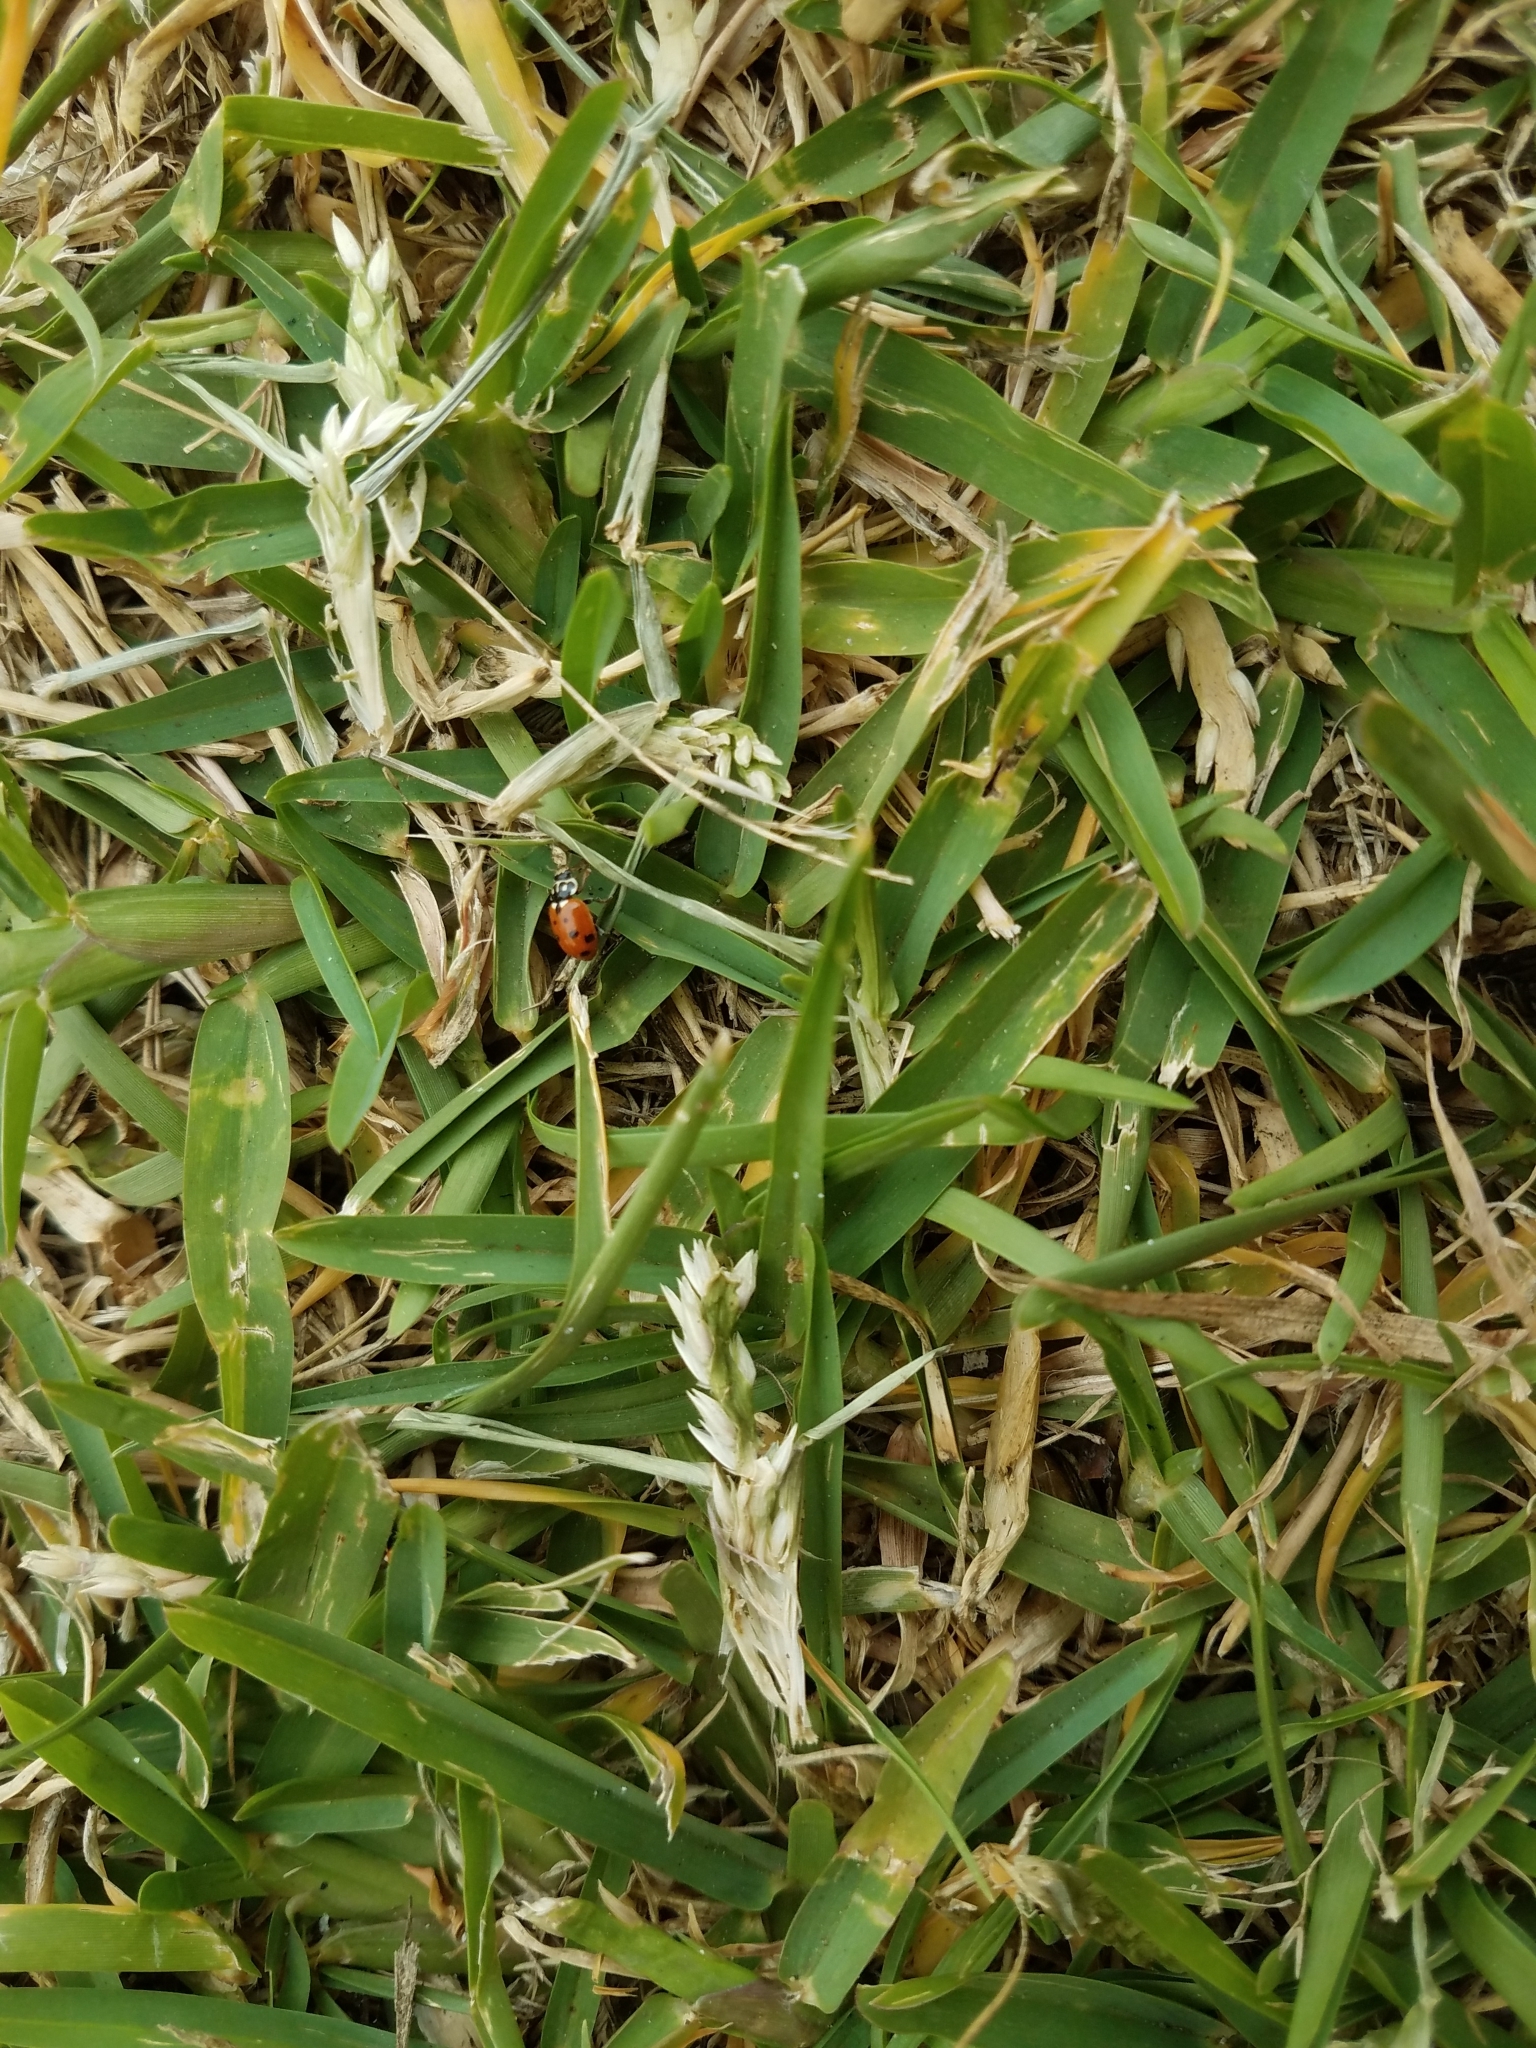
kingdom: Animalia
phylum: Arthropoda
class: Insecta
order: Coleoptera
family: Coccinellidae
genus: Hippodamia
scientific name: Hippodamia variegata
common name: Ladybird beetle
